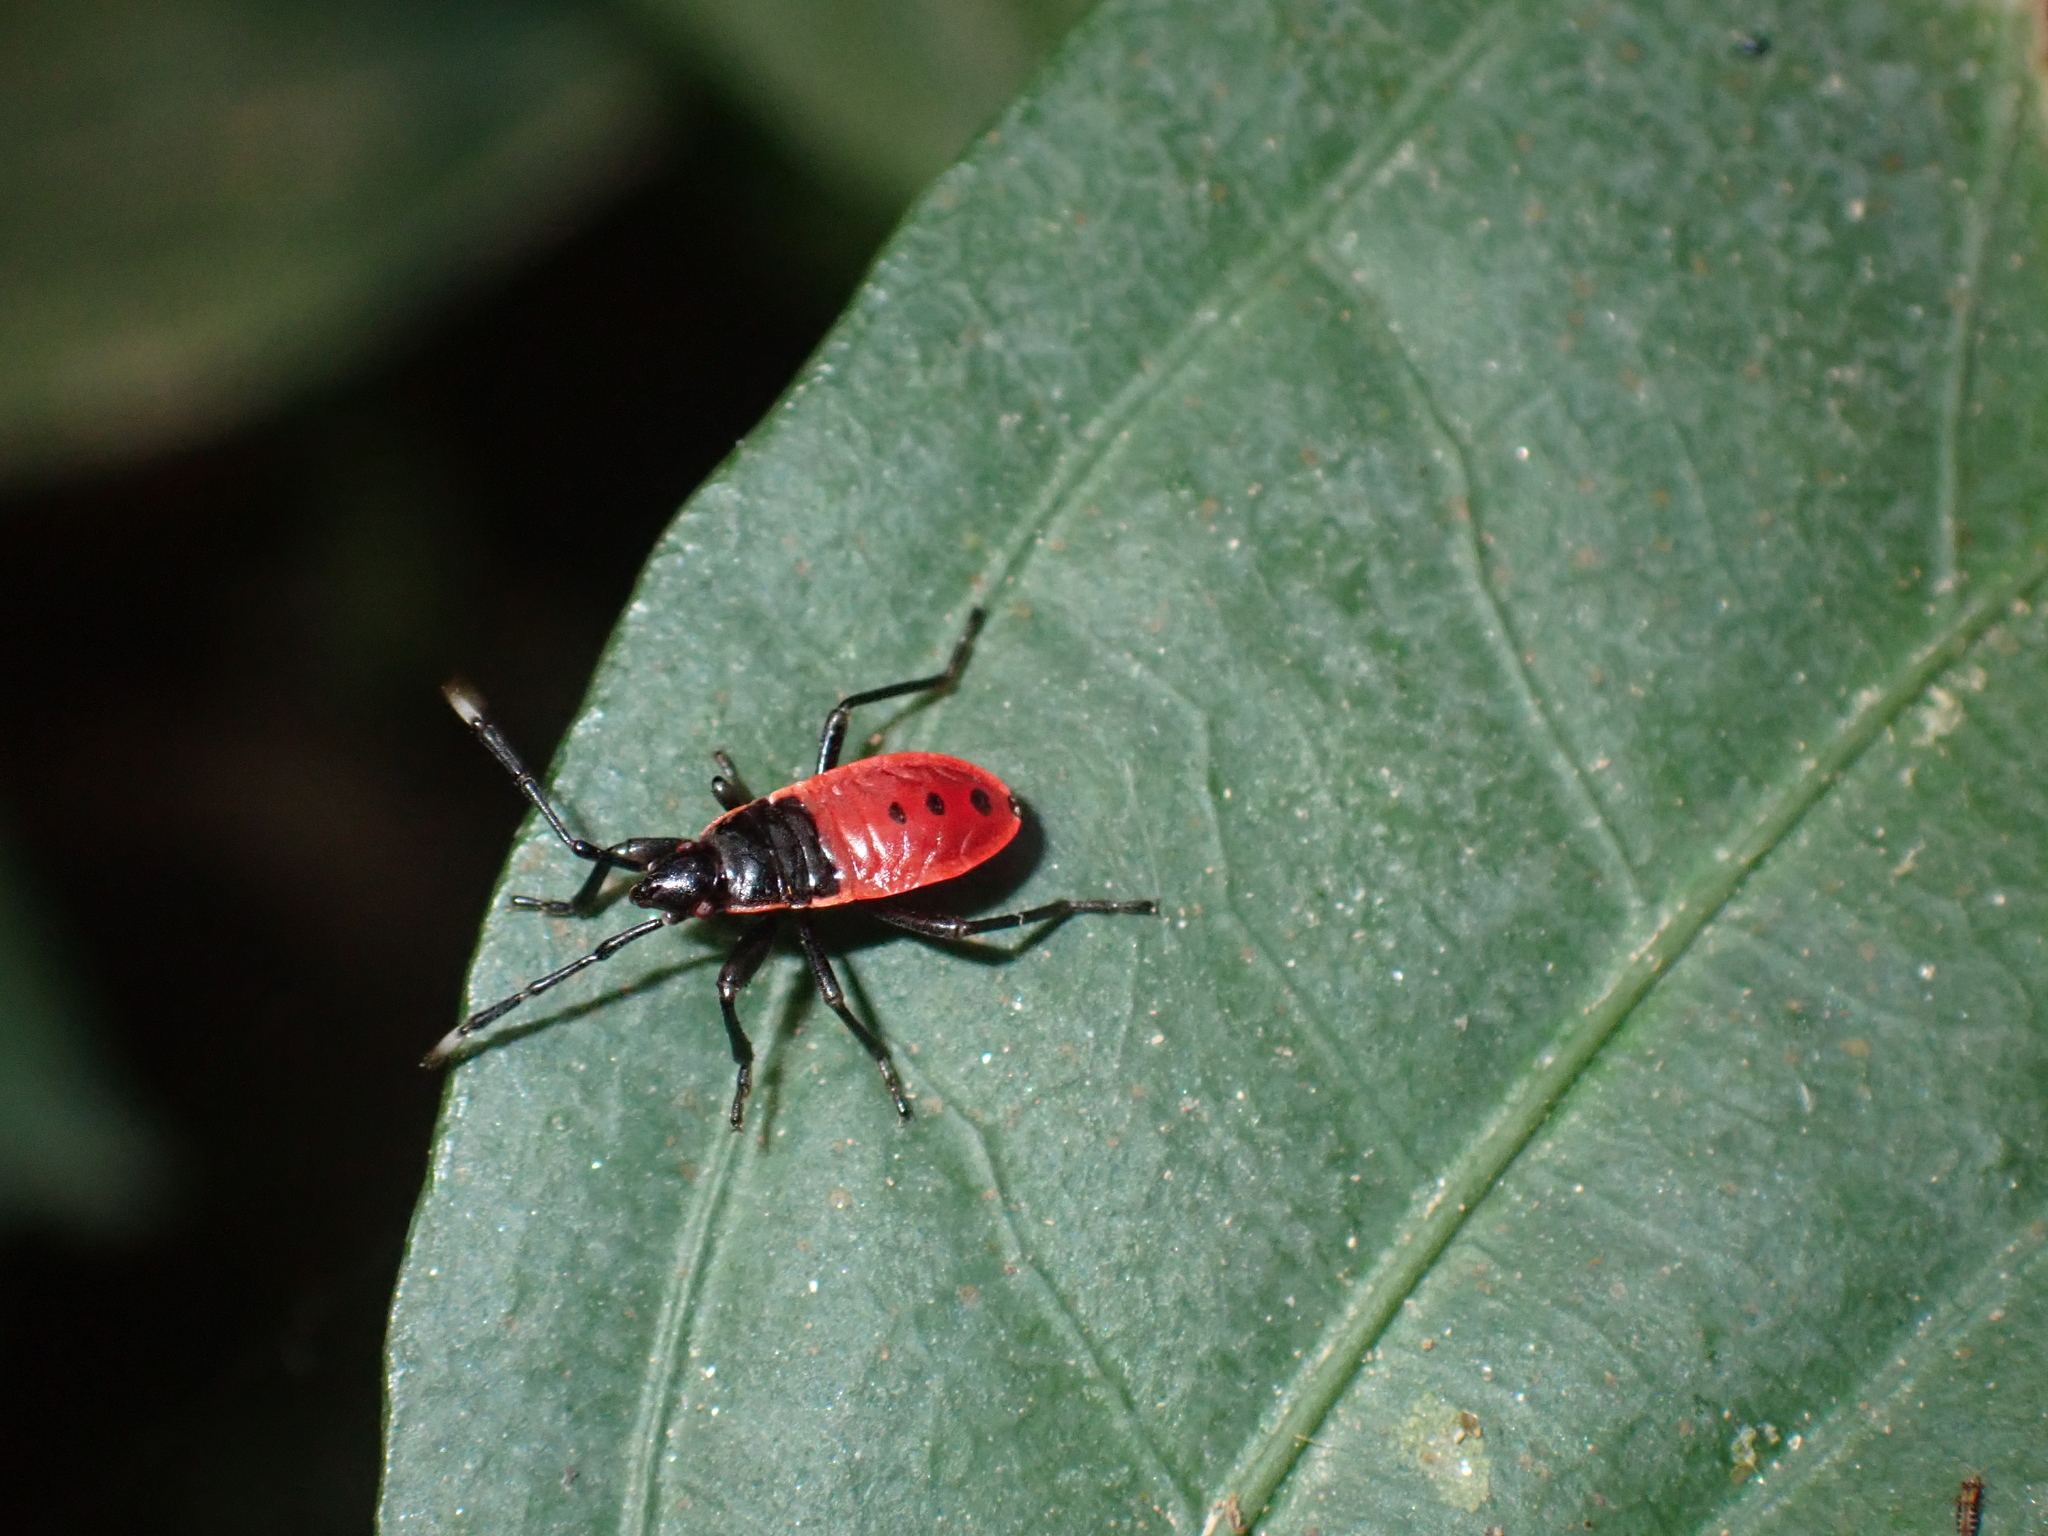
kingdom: Animalia
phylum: Arthropoda
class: Insecta
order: Hemiptera
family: Largidae
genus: Macrocheraia
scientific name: Macrocheraia grandis
